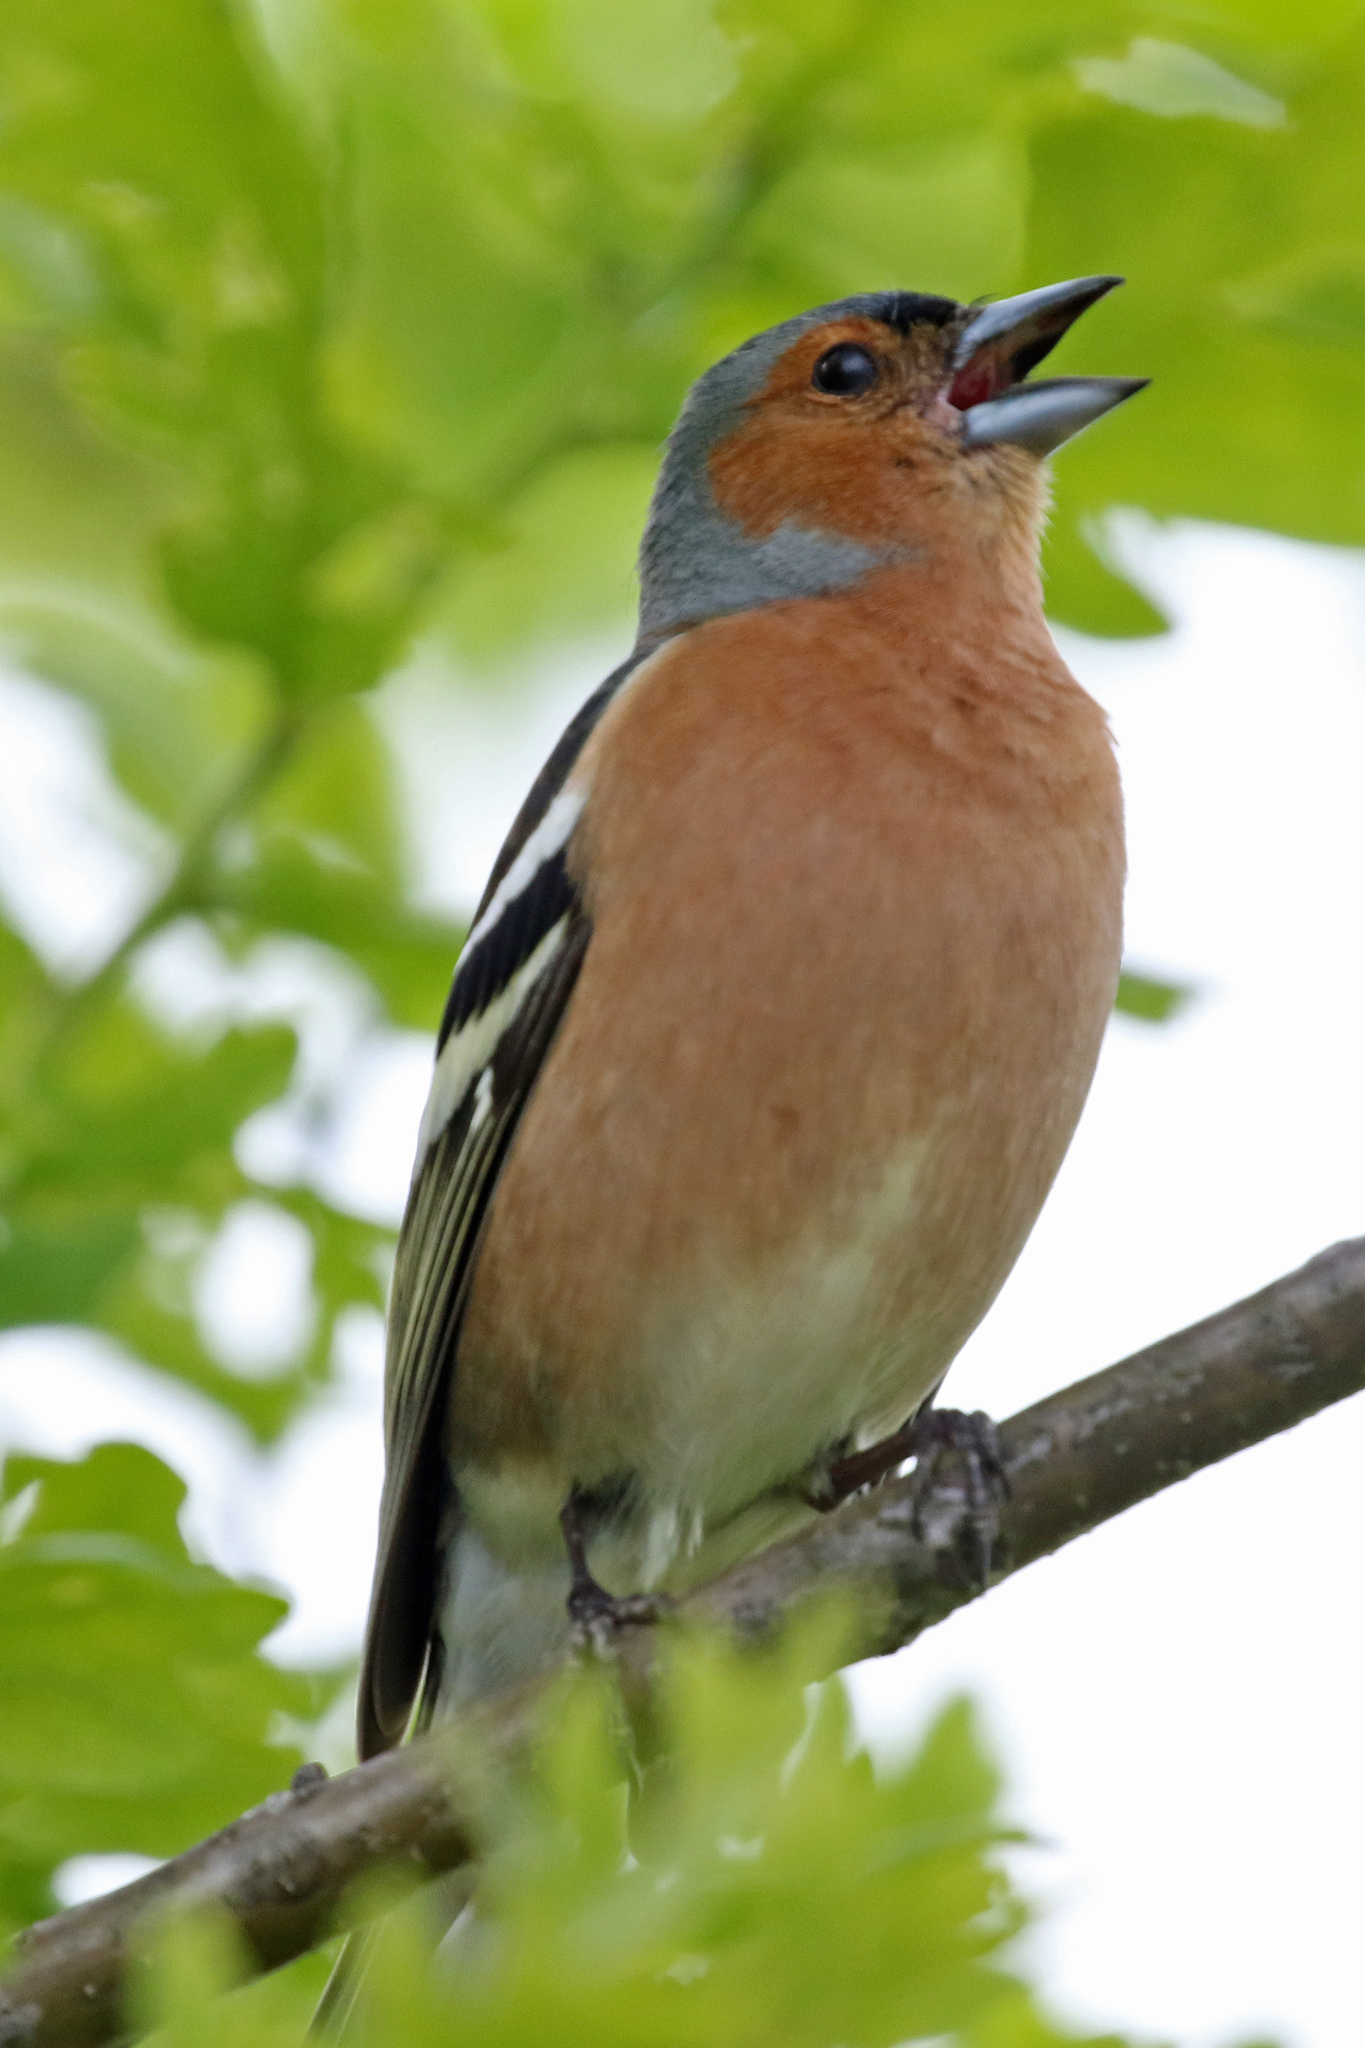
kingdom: Animalia
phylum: Chordata
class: Aves
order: Passeriformes
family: Fringillidae
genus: Fringilla
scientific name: Fringilla coelebs
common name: Common chaffinch
